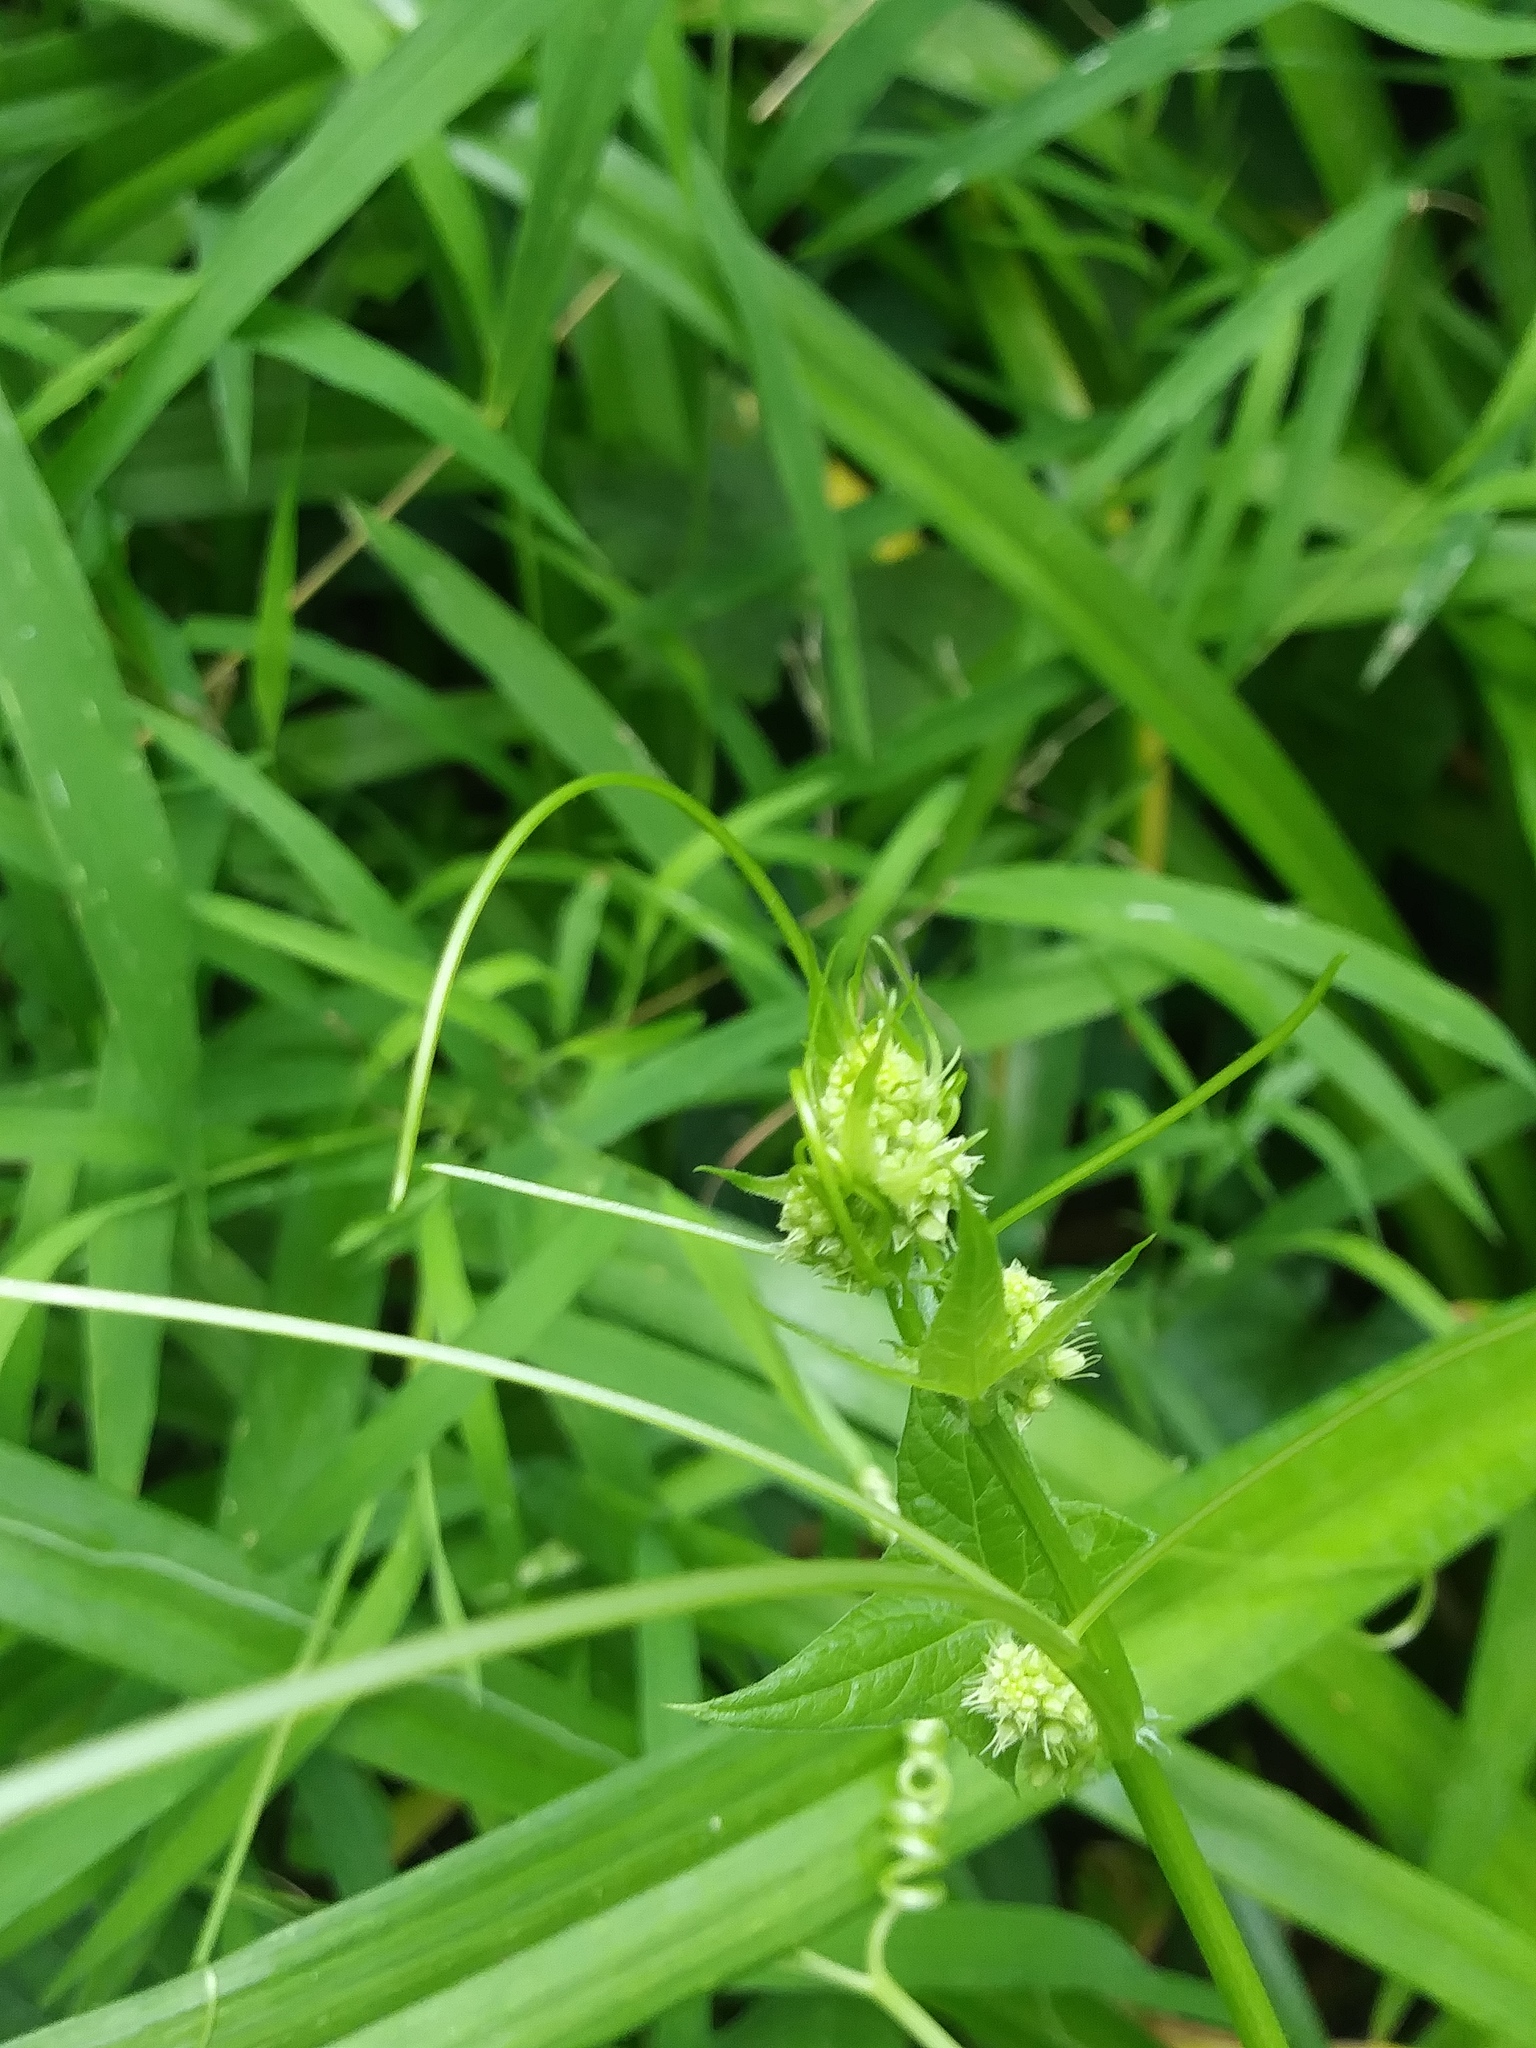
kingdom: Plantae
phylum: Tracheophyta
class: Magnoliopsida
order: Cucurbitales
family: Cucurbitaceae
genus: Echinocystis
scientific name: Echinocystis lobata
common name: Wild cucumber
